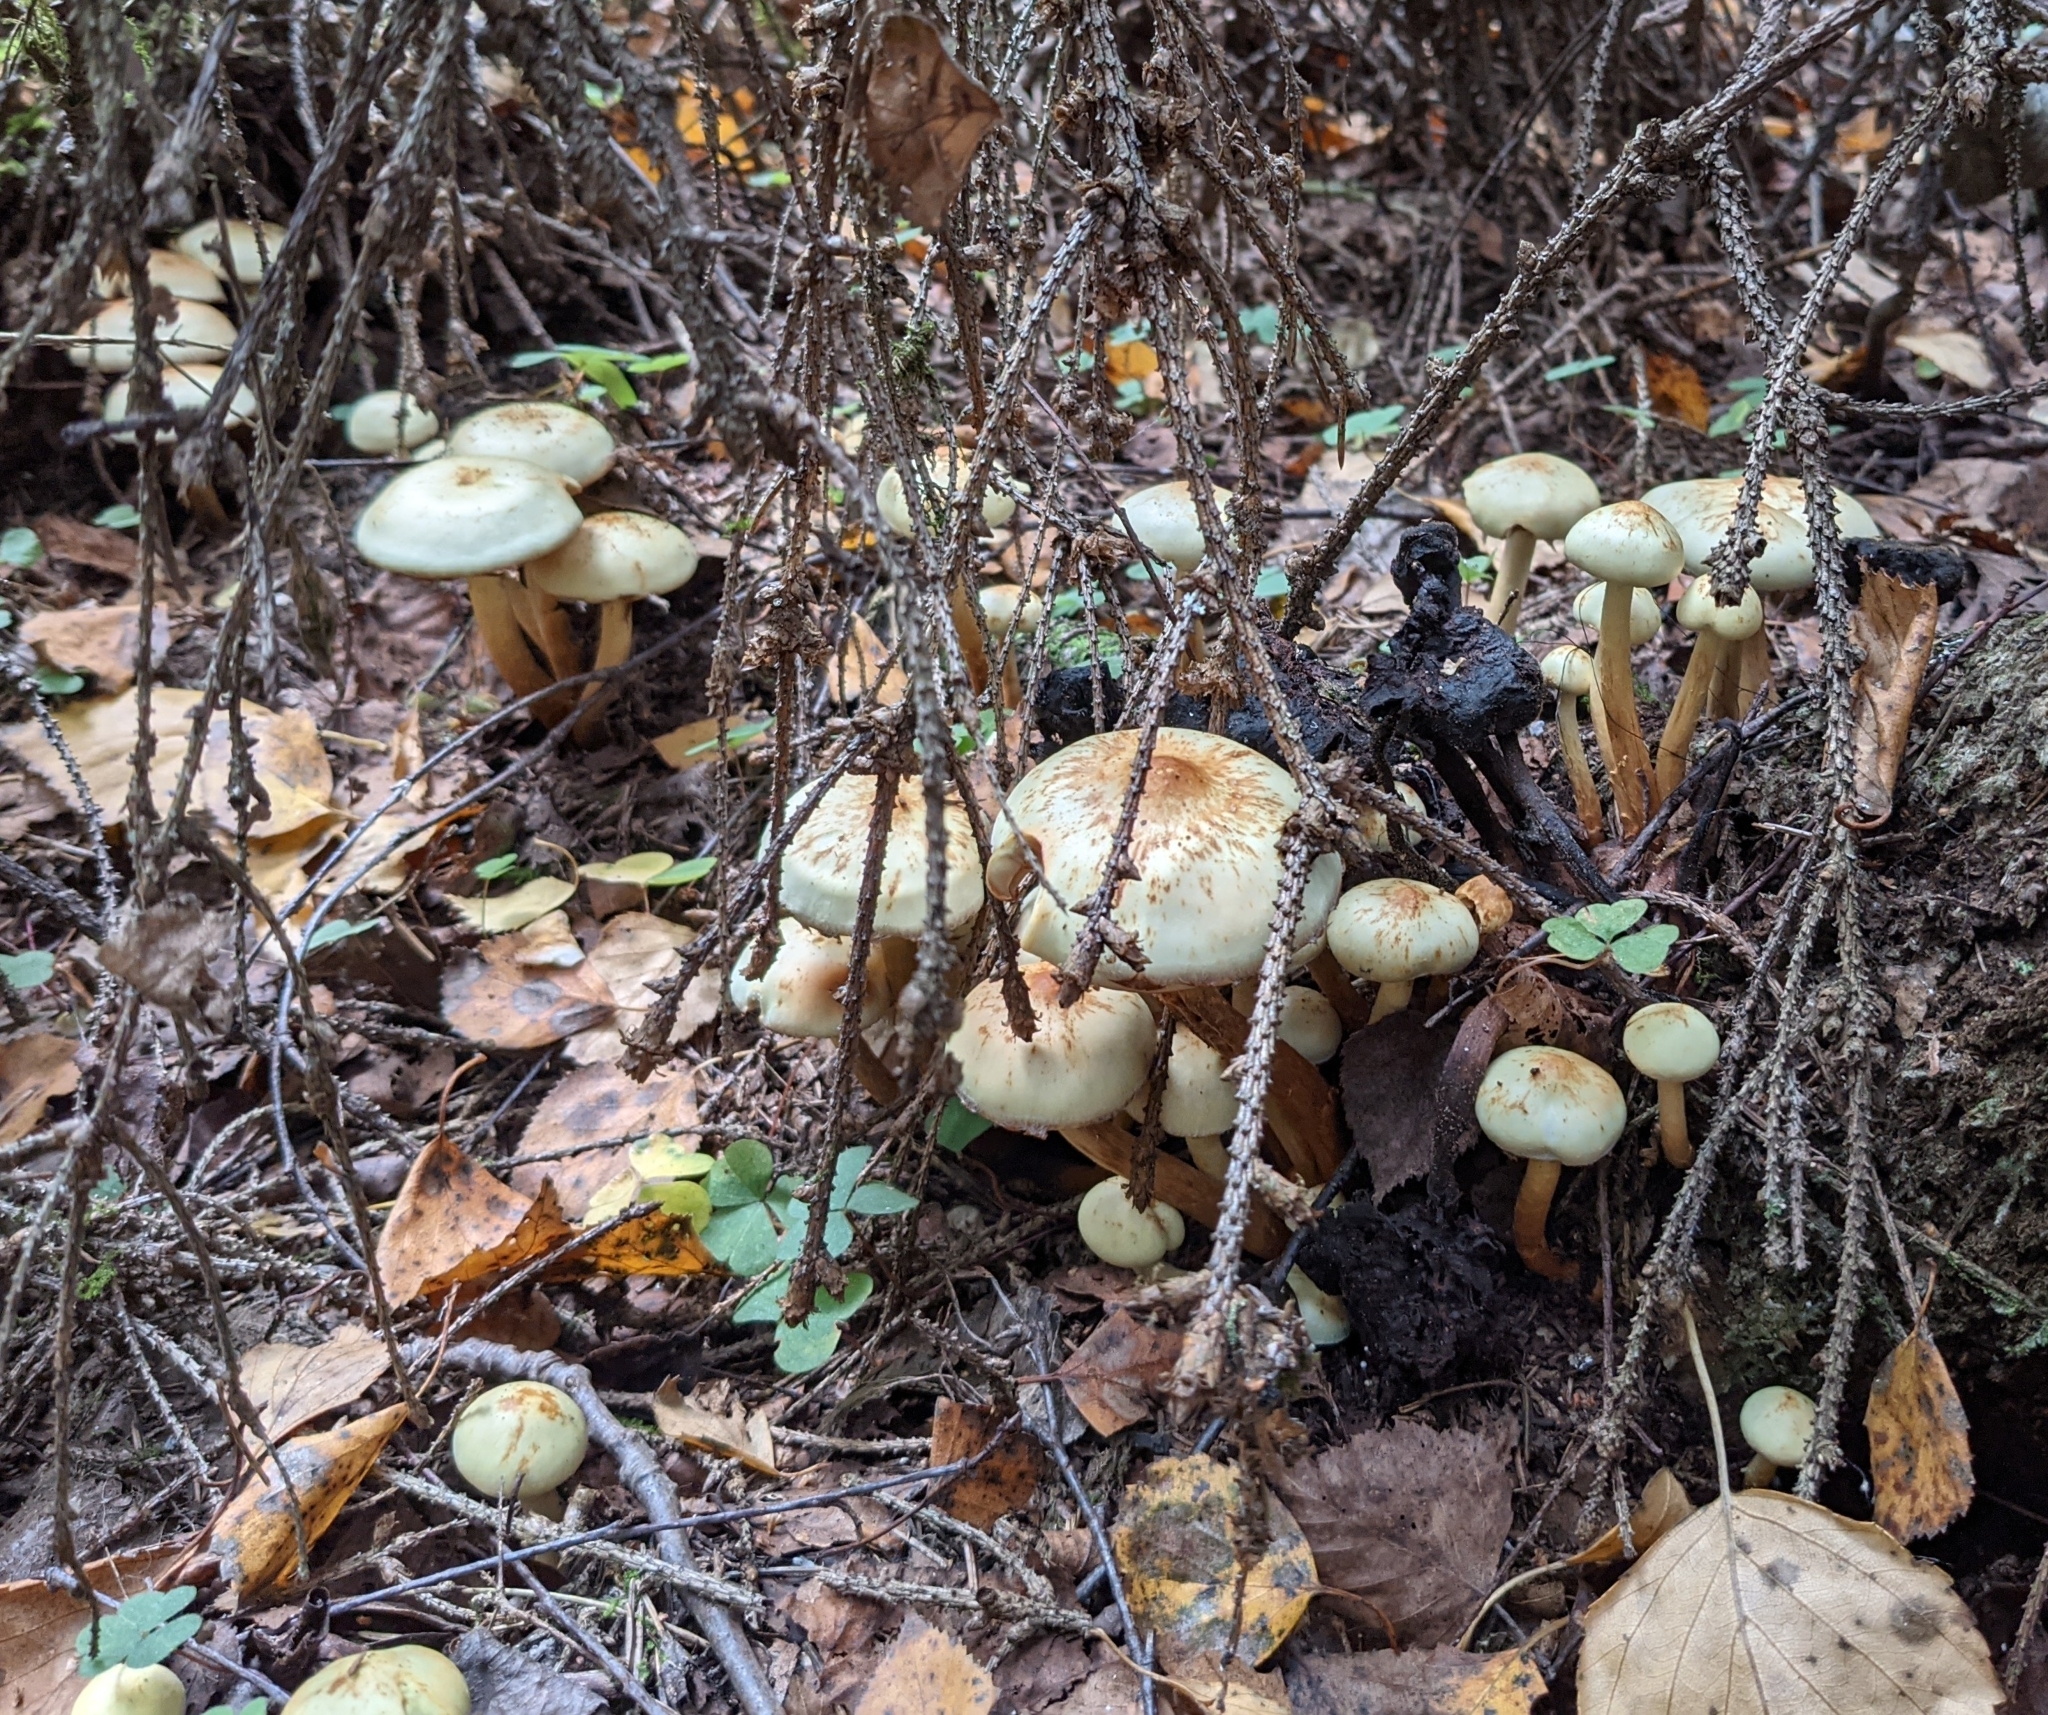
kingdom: Fungi
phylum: Basidiomycota
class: Agaricomycetes
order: Agaricales
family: Hymenogastraceae
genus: Flammula
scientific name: Flammula alnicola
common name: Alder scalycap
